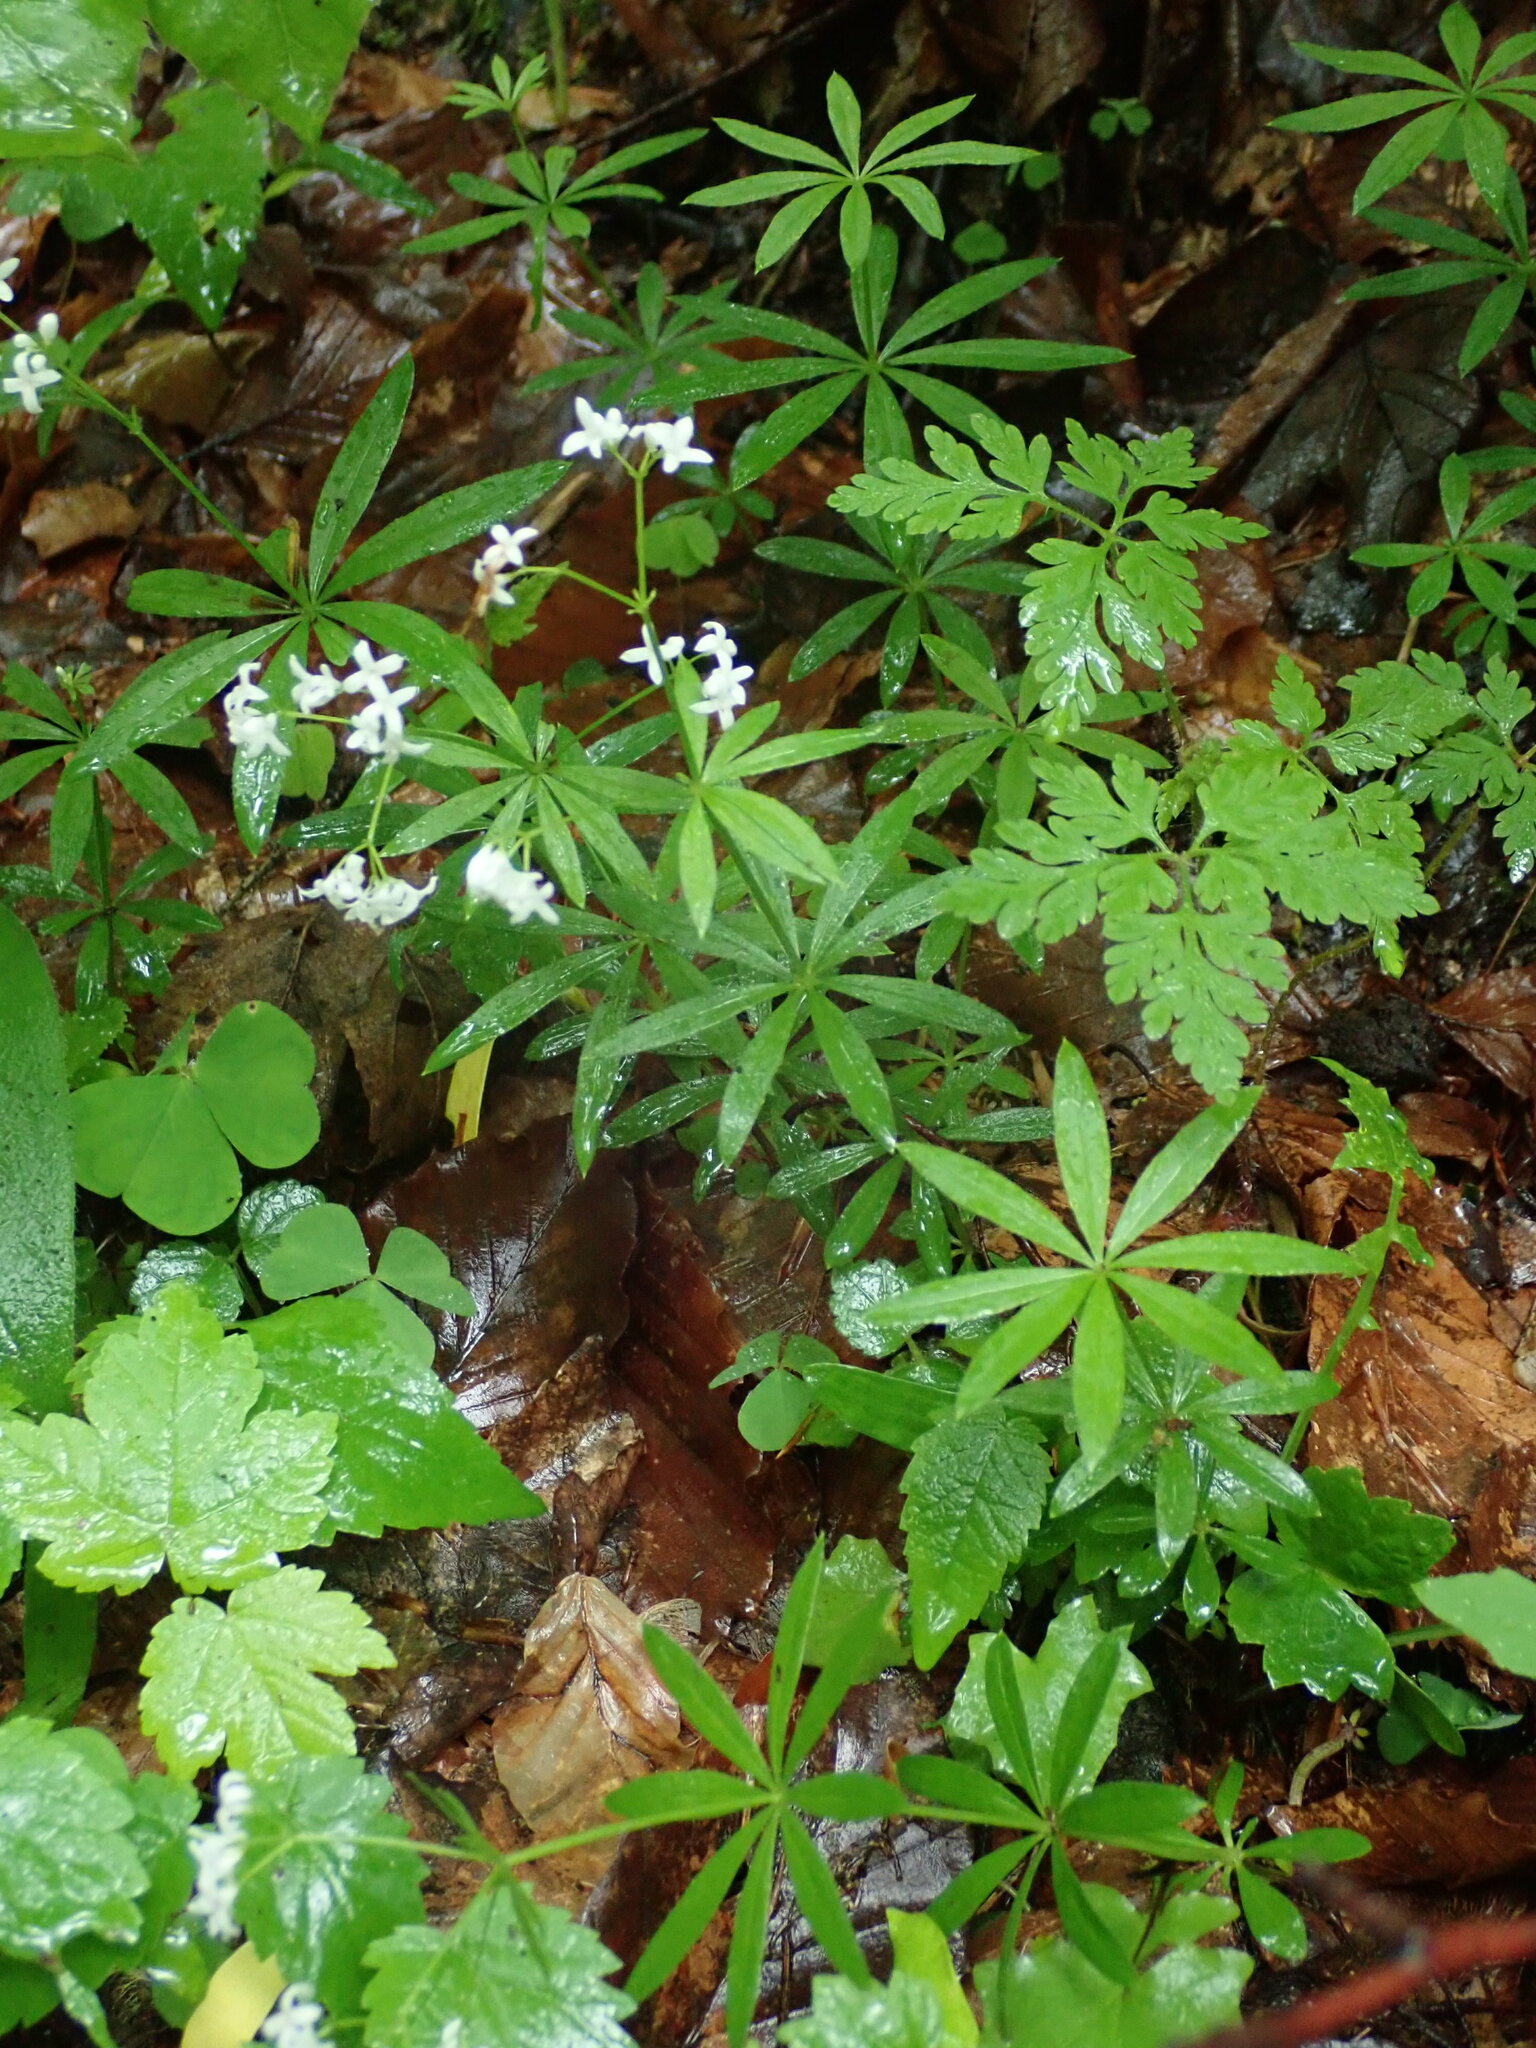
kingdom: Plantae
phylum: Tracheophyta
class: Magnoliopsida
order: Gentianales
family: Rubiaceae
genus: Galium
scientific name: Galium odoratum
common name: Sweet woodruff
